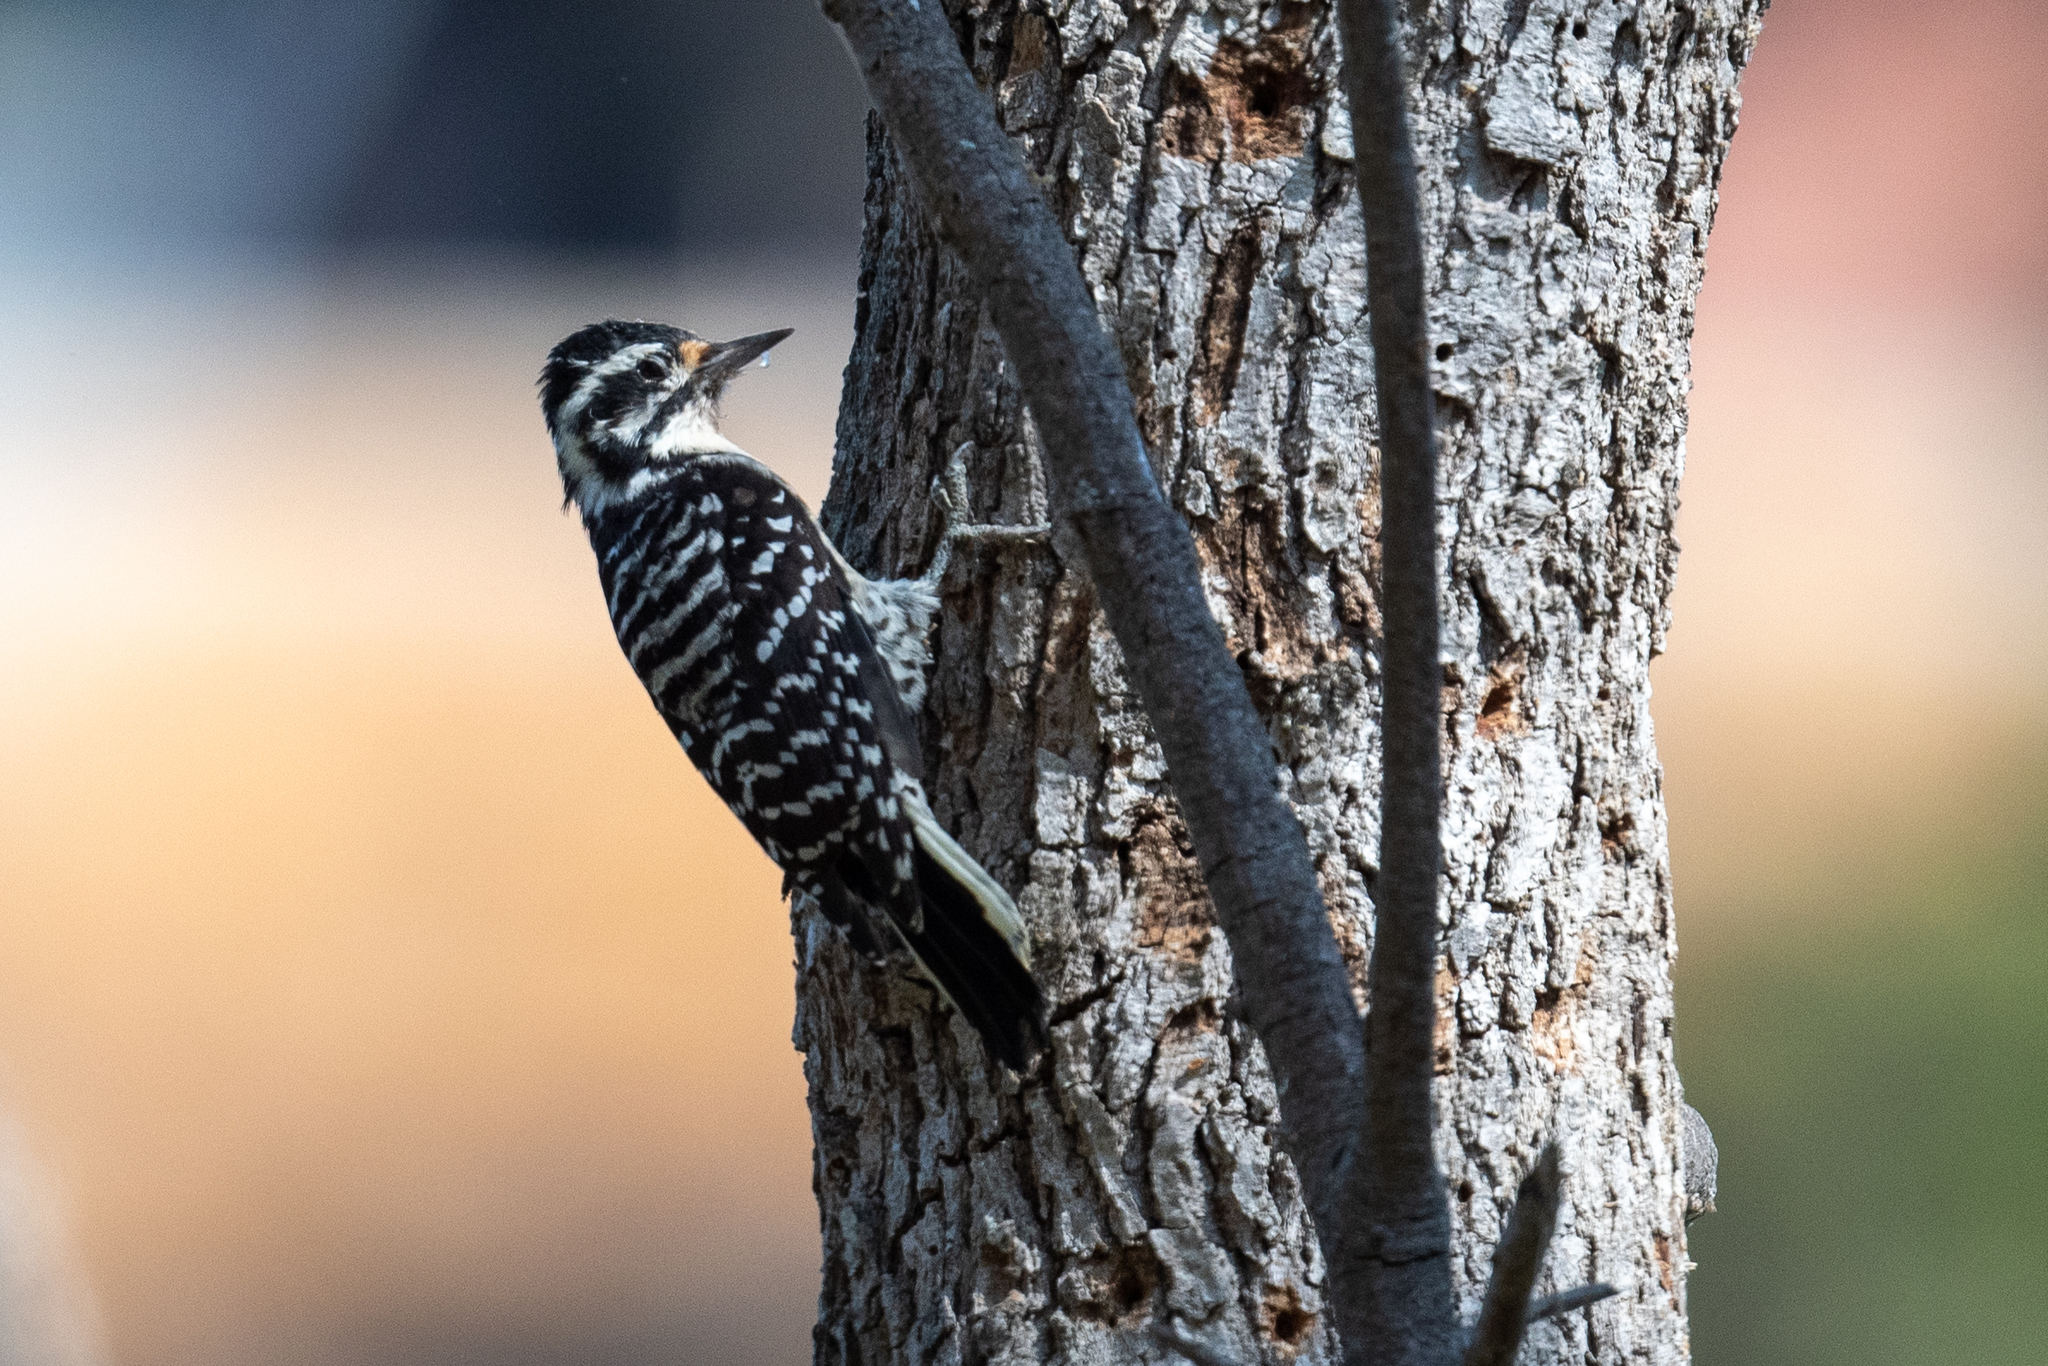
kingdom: Animalia
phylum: Chordata
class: Aves
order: Piciformes
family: Picidae
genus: Dryobates
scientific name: Dryobates nuttallii
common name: Nuttall's woodpecker
